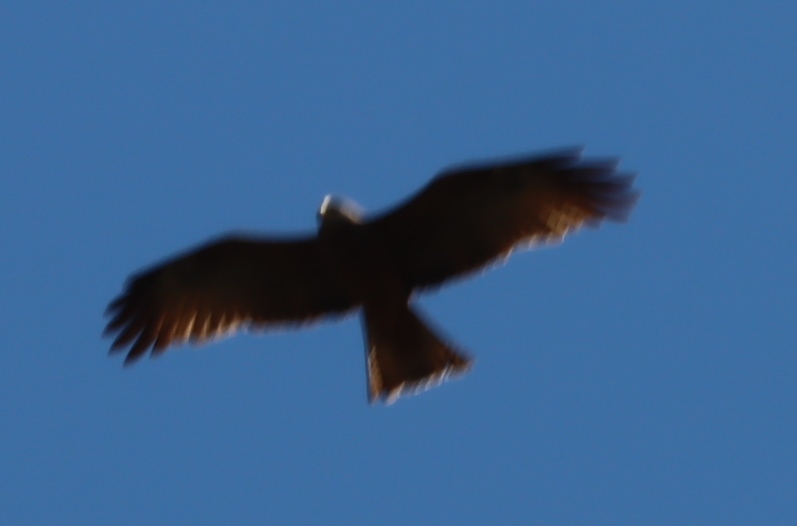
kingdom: Animalia
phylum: Chordata
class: Aves
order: Accipitriformes
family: Accipitridae
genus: Milvus
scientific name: Milvus migrans
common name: Black kite
